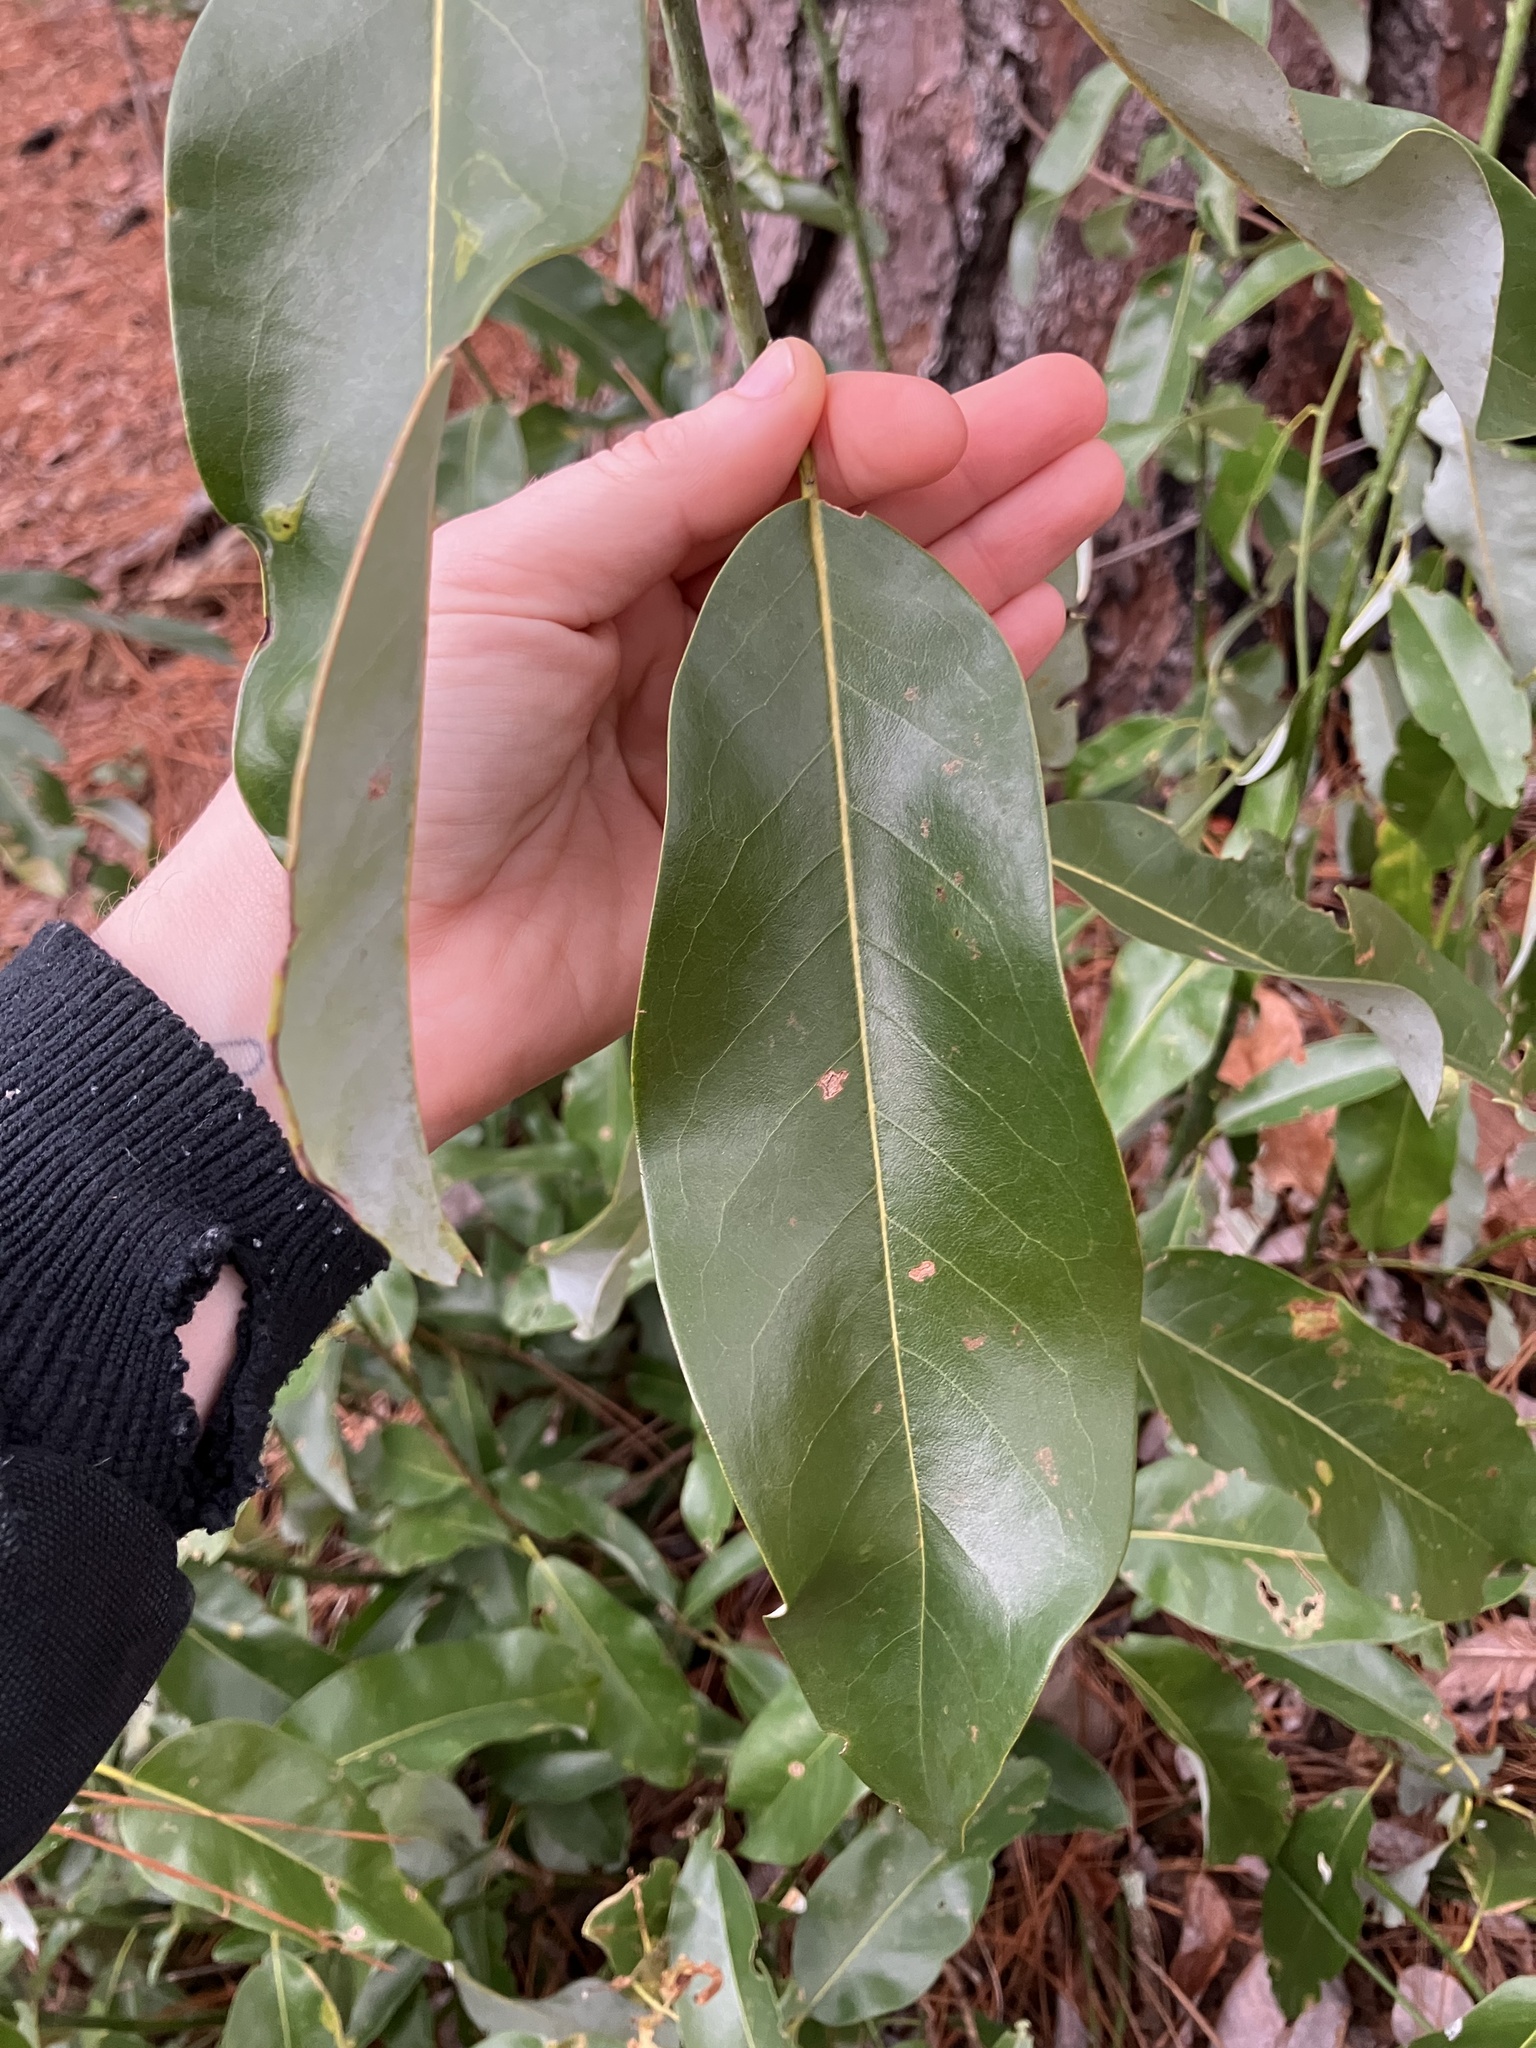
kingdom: Plantae
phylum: Tracheophyta
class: Magnoliopsida
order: Magnoliales
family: Magnoliaceae
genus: Magnolia
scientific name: Magnolia virginiana
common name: Swamp bay
